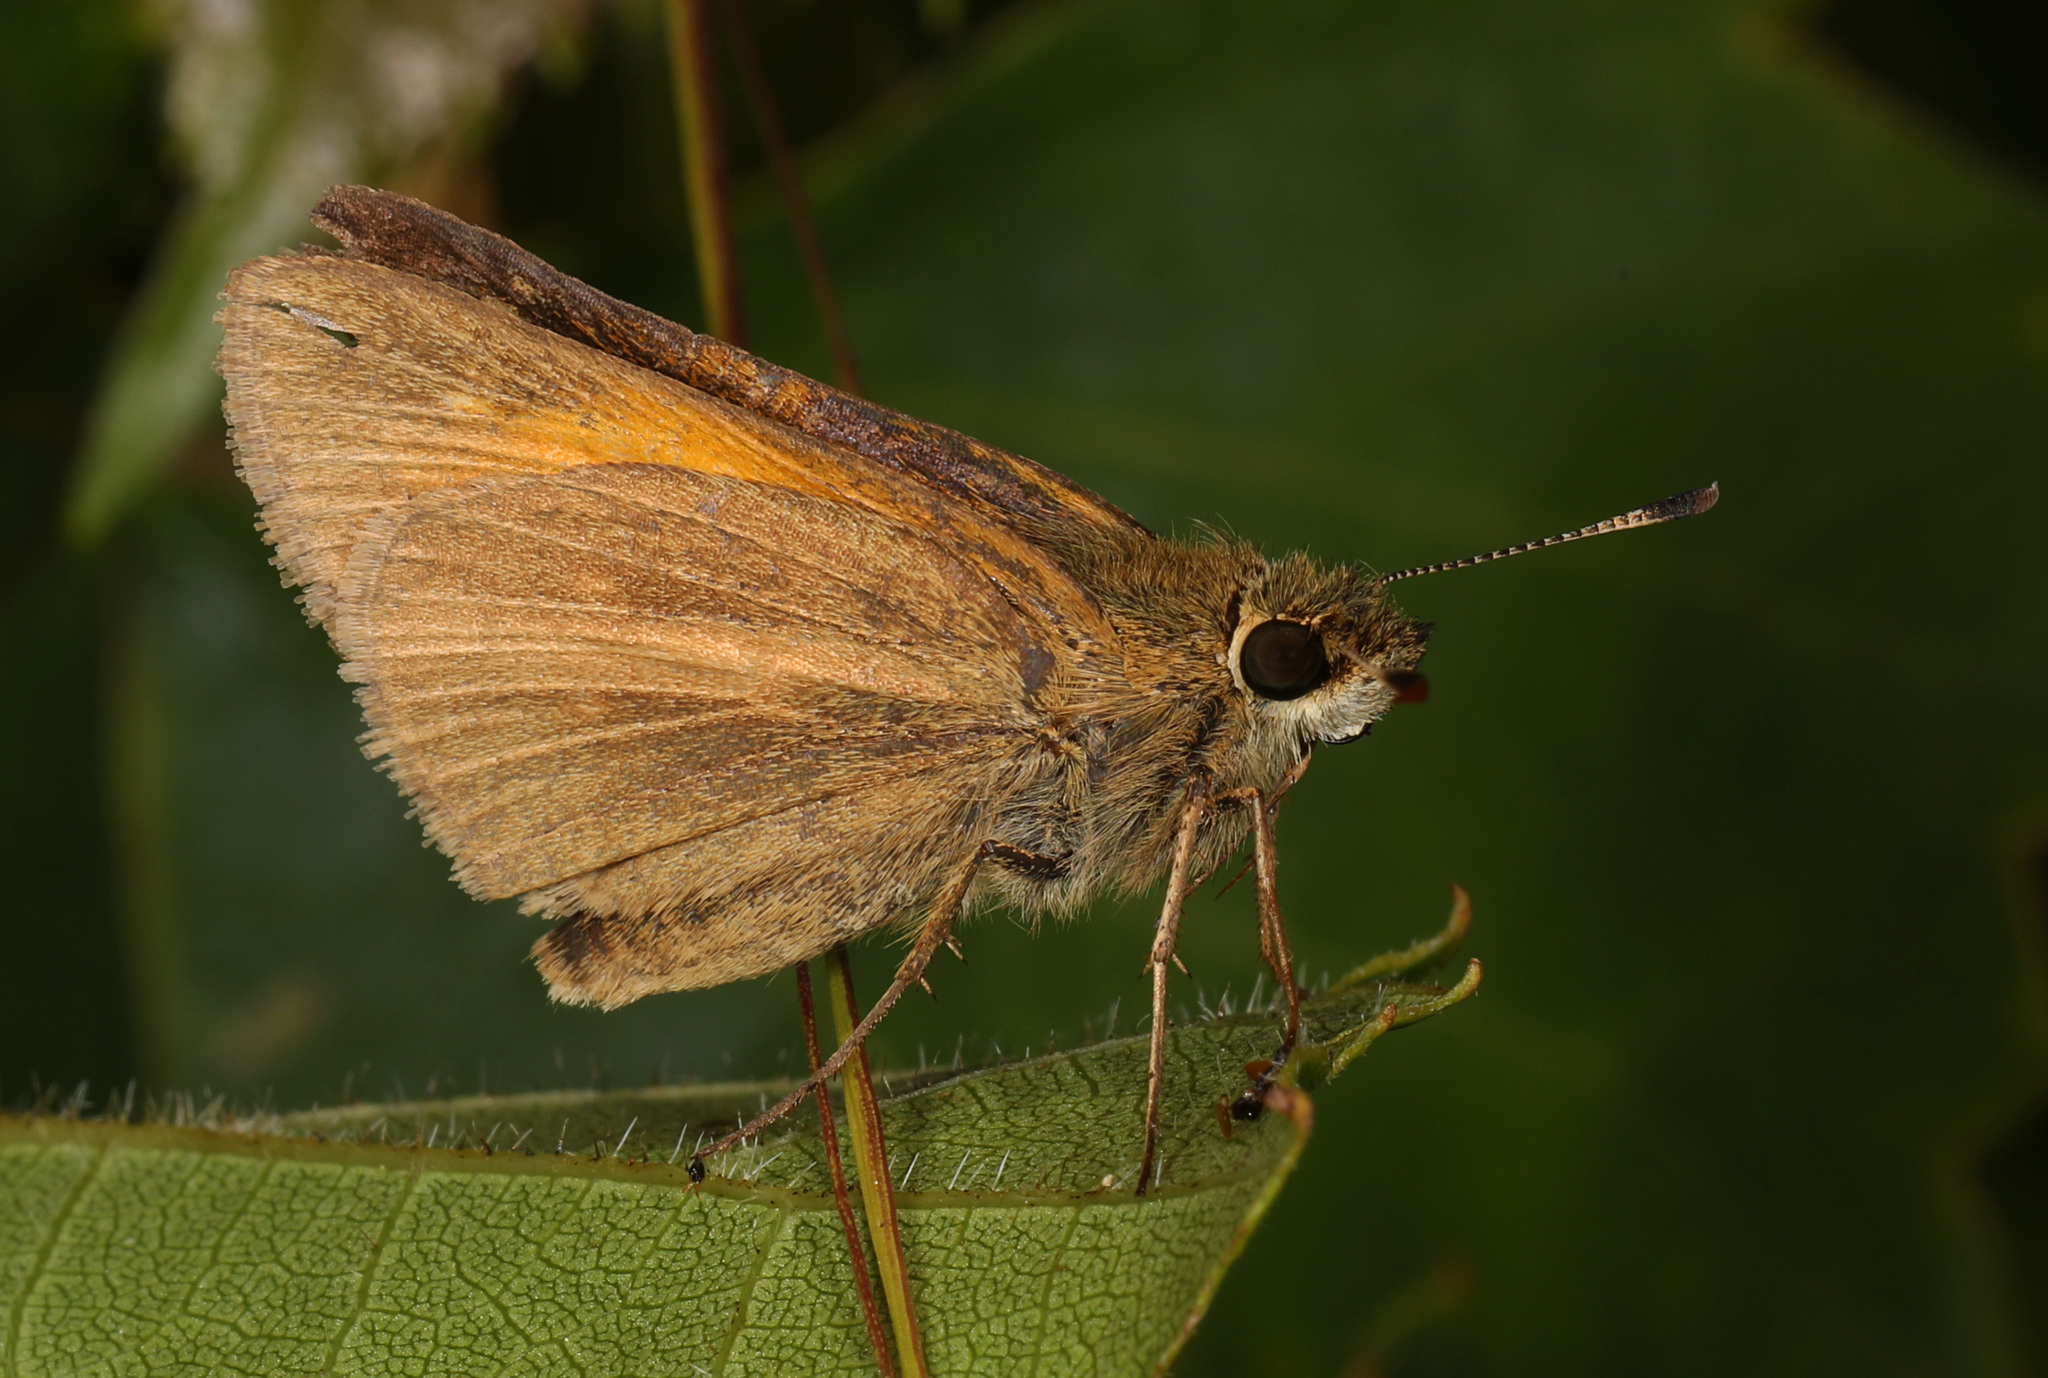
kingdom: Animalia
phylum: Arthropoda
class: Insecta
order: Lepidoptera
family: Hesperiidae
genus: Poanes
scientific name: Poanes aaroni
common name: Aaron's skipper
